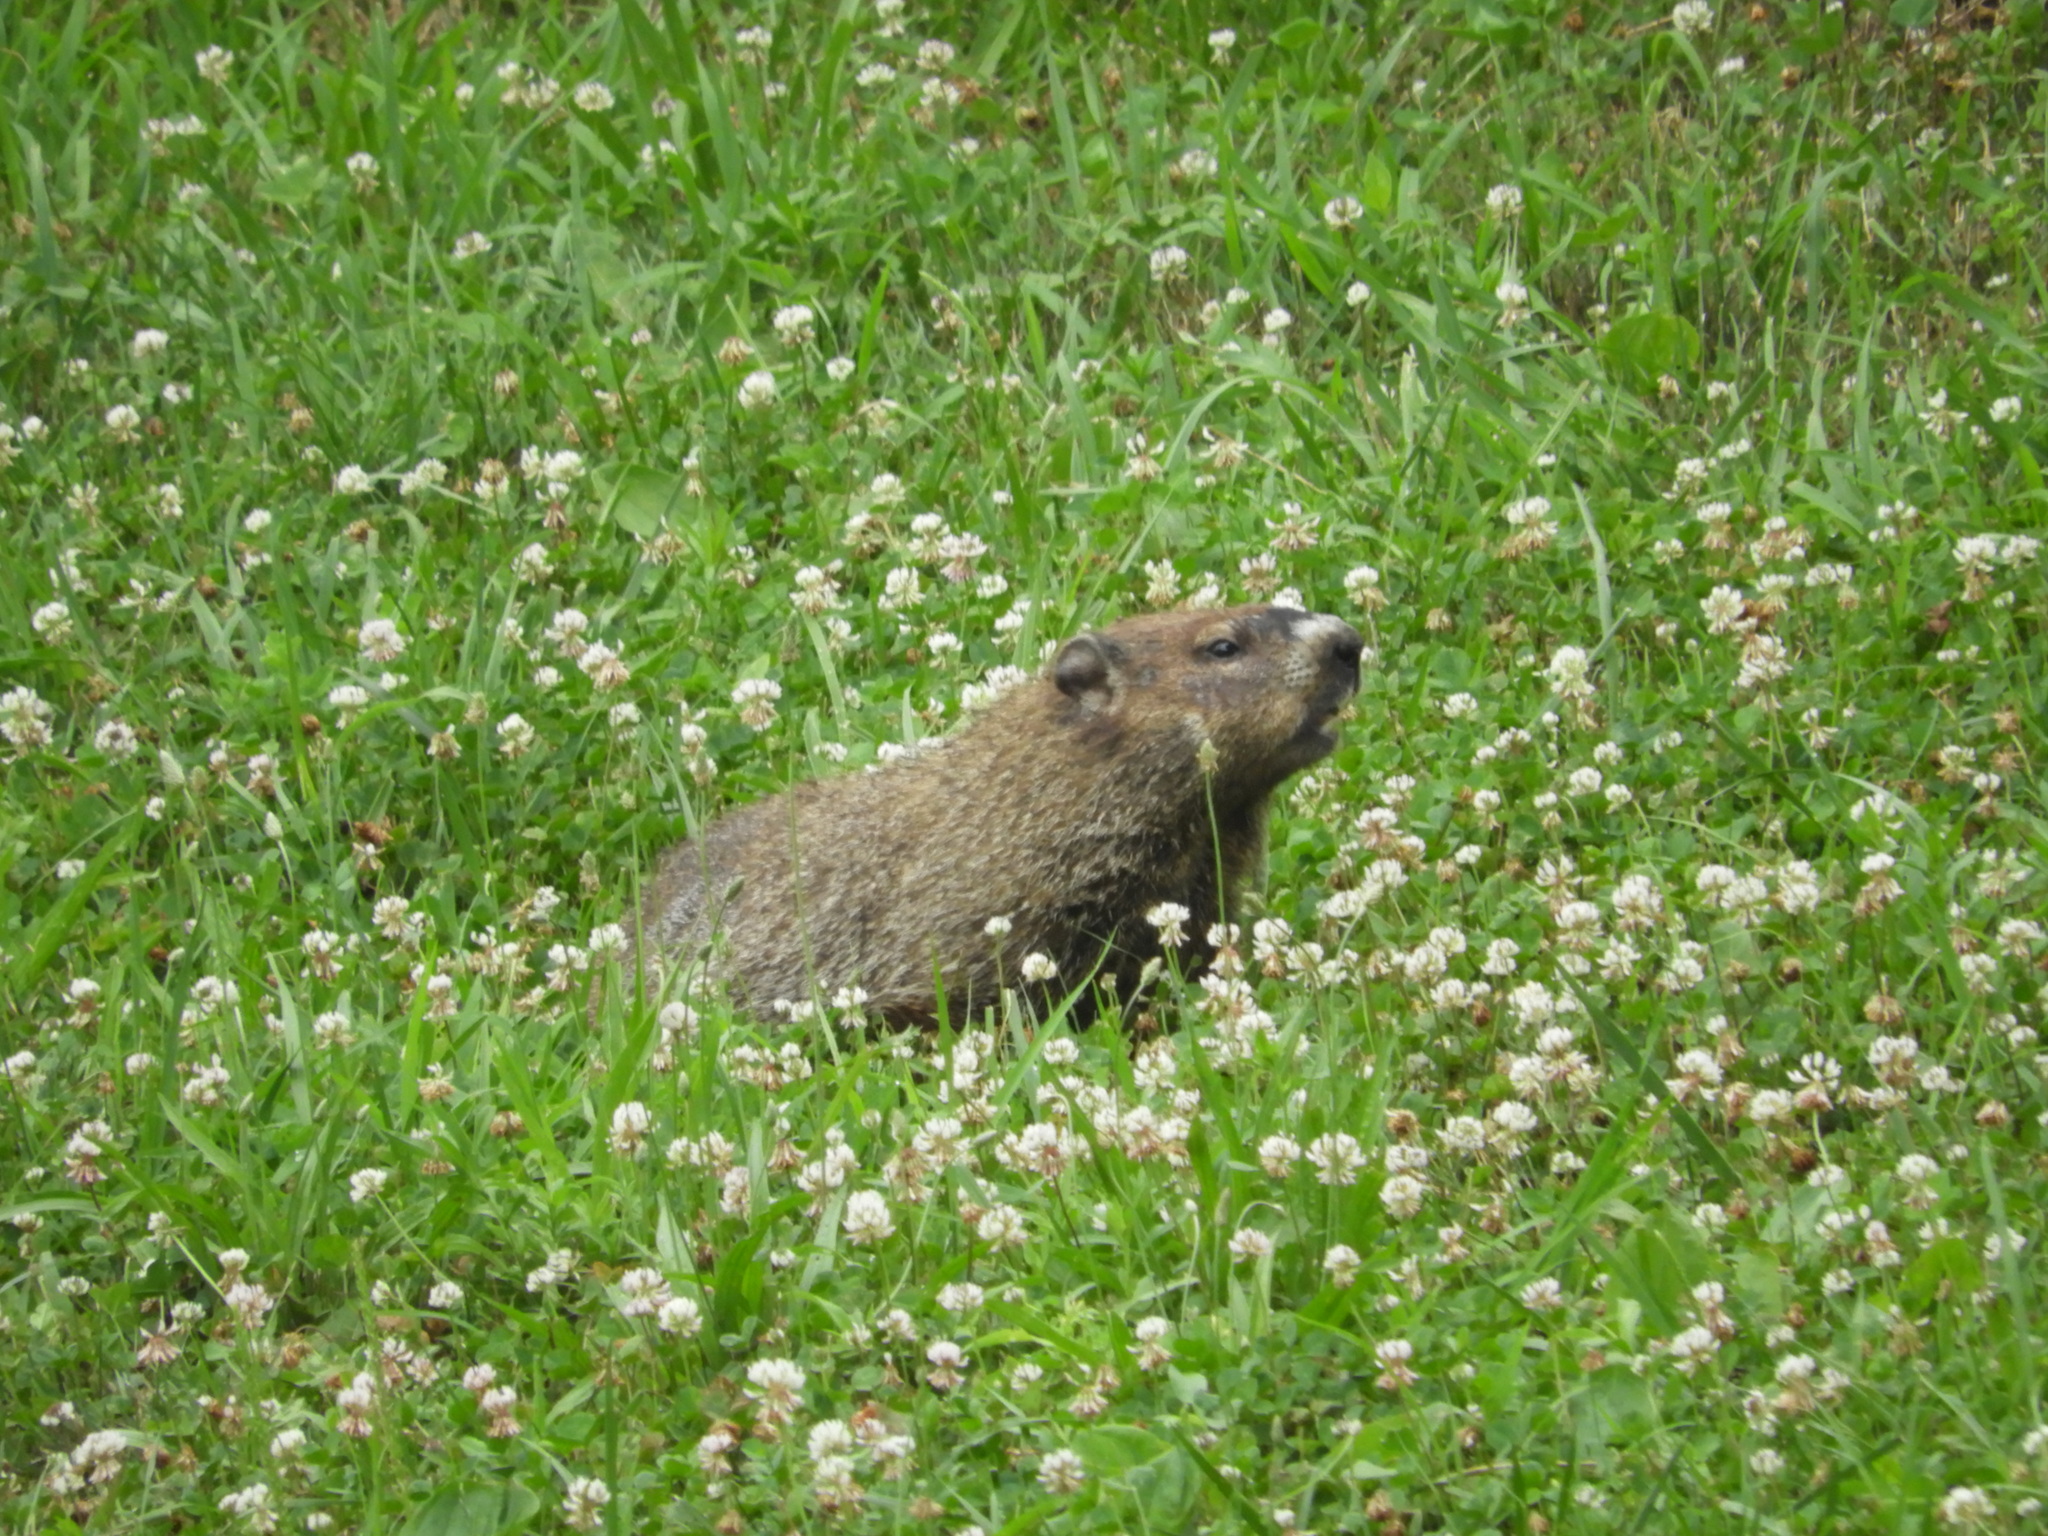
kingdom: Animalia
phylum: Chordata
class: Mammalia
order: Rodentia
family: Sciuridae
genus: Marmota
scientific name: Marmota monax
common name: Groundhog
